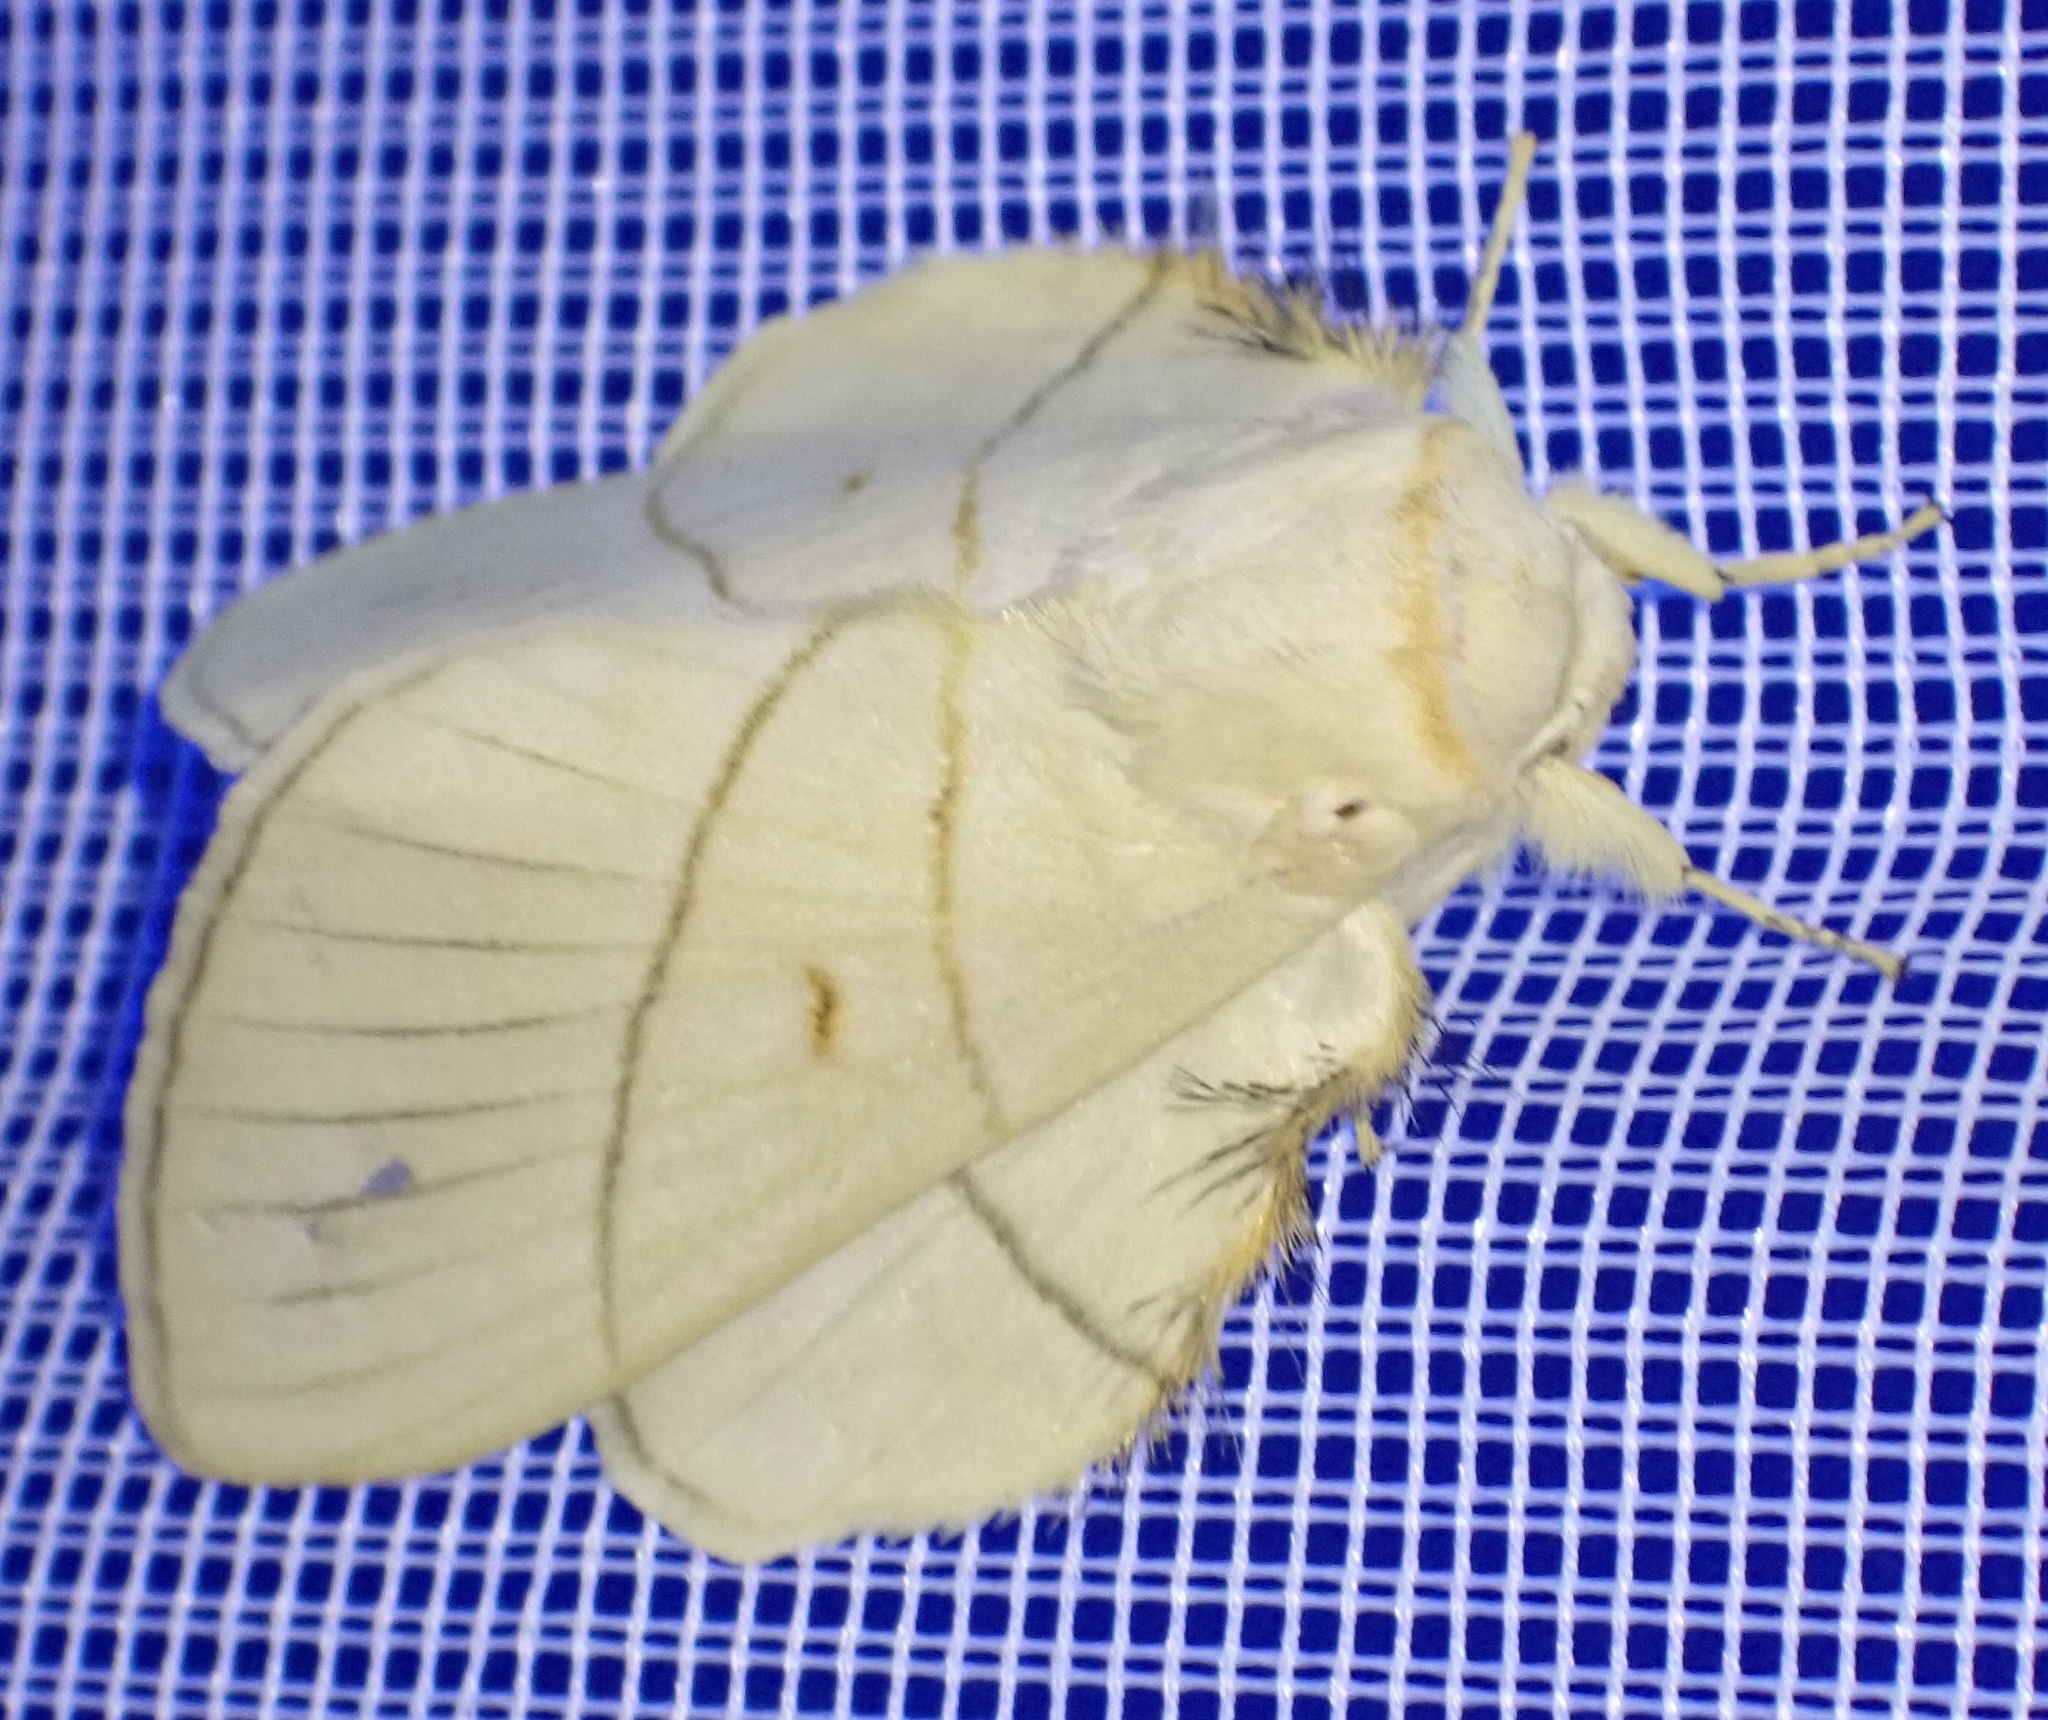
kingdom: Animalia
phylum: Arthropoda
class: Insecta
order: Lepidoptera
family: Lasiocampidae
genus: Trichopisthia
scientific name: Trichopisthia monteiroi
